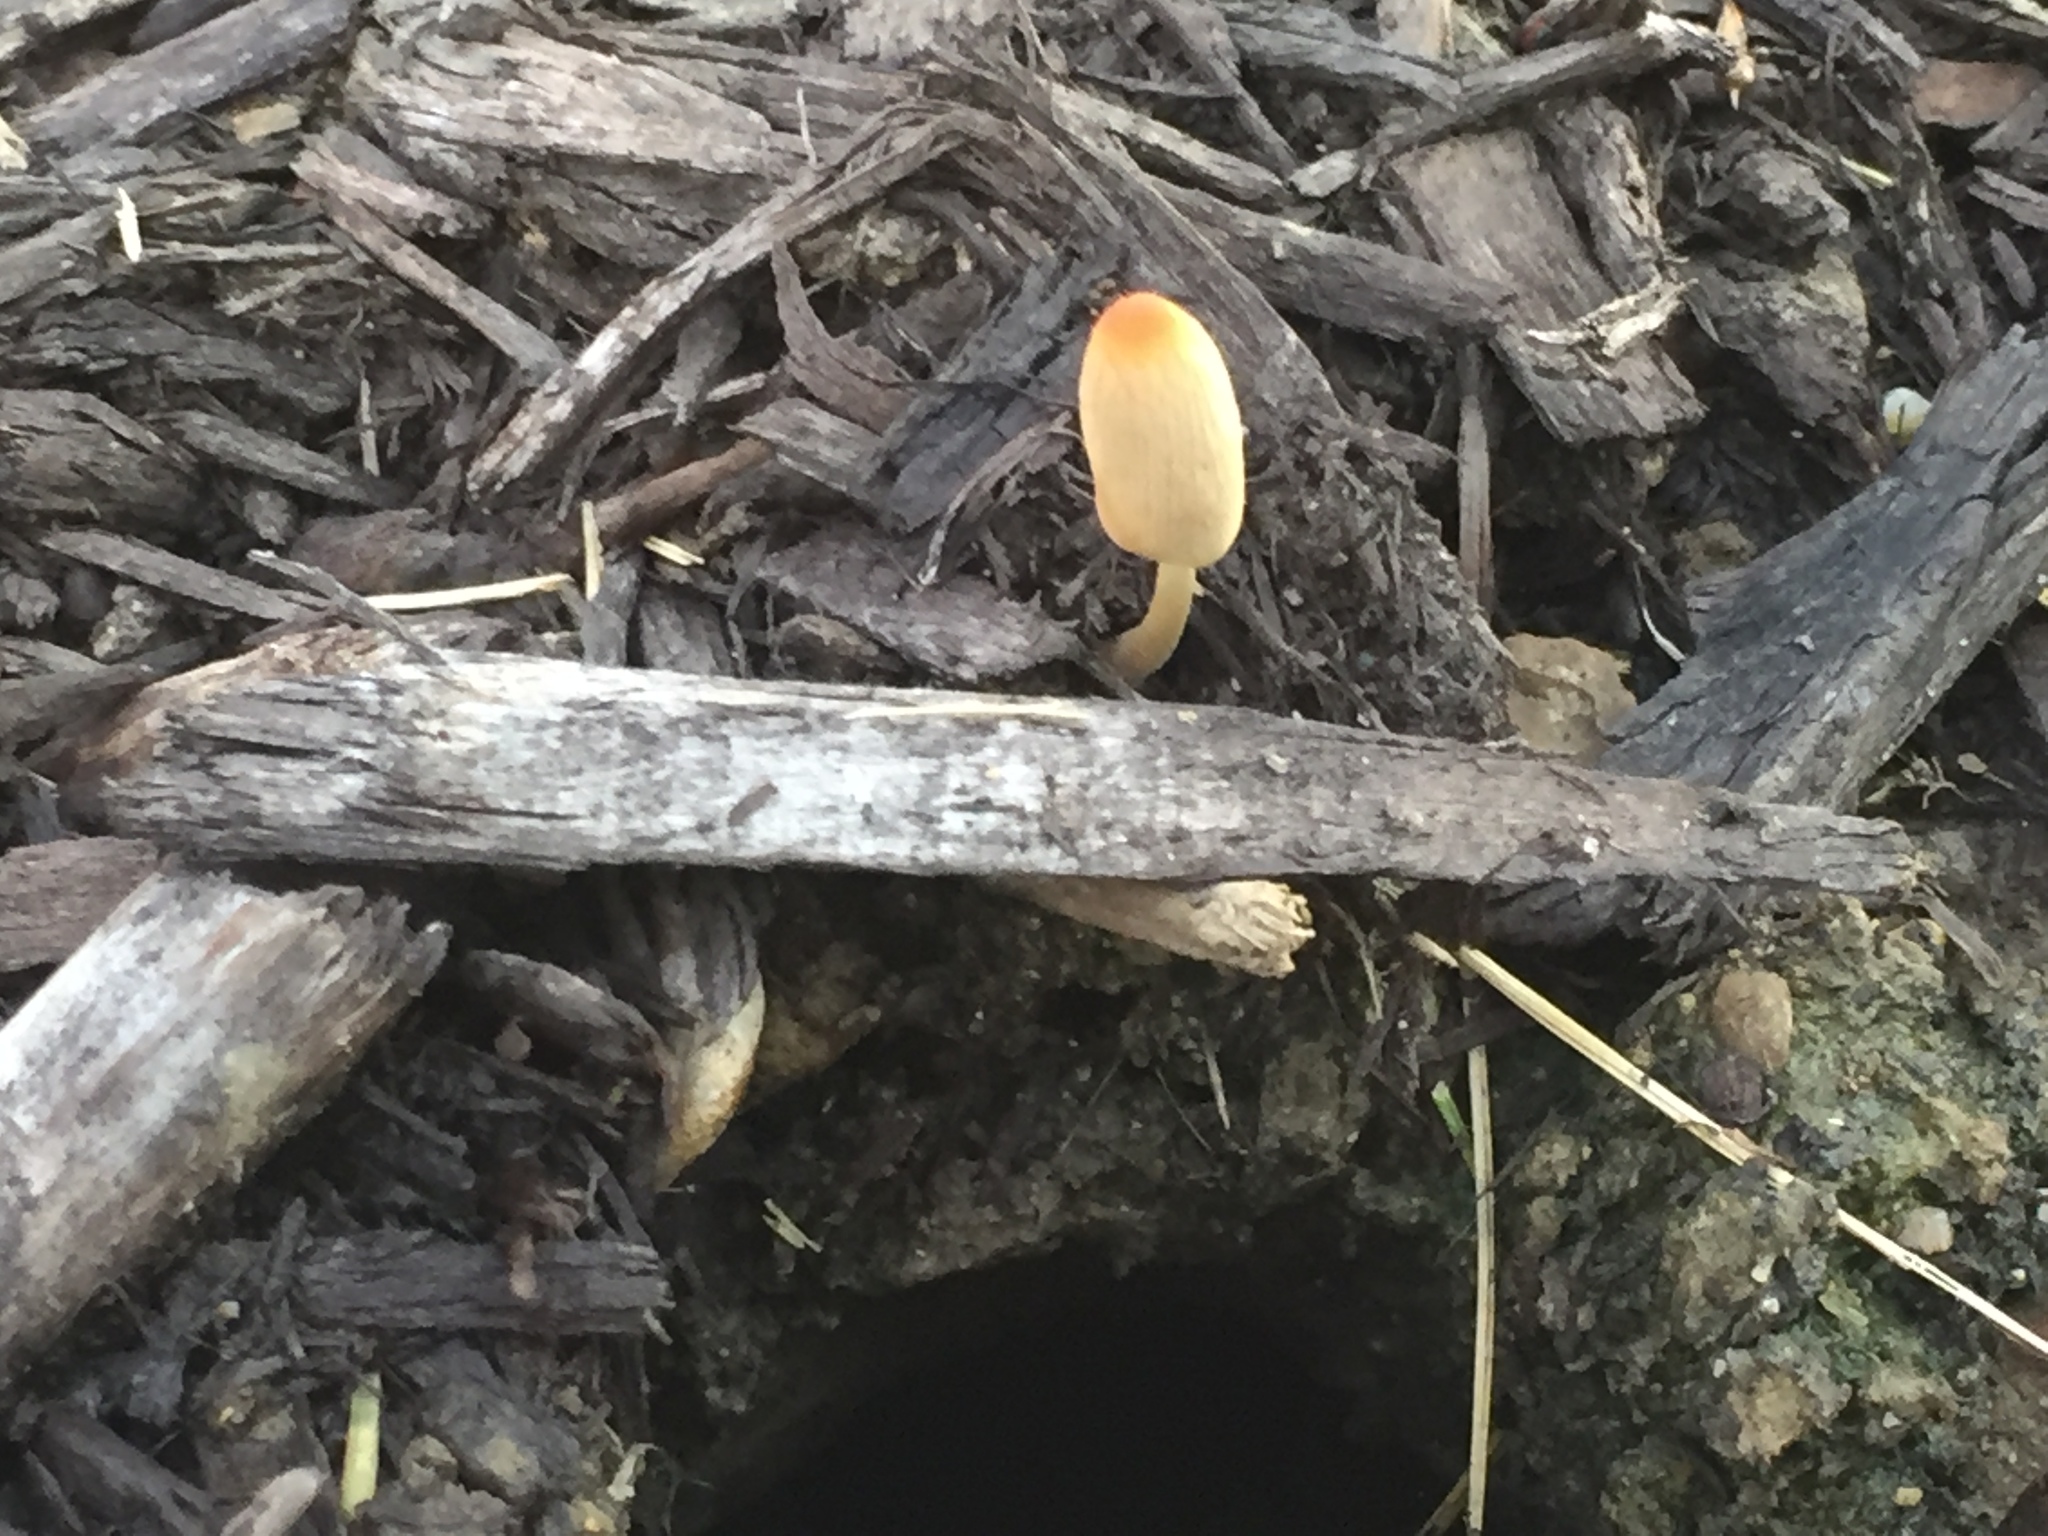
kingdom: Fungi
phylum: Basidiomycota
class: Agaricomycetes
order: Agaricales
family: Bolbitiaceae
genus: Bolbitius
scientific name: Bolbitius titubans
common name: Yellow fieldcap
